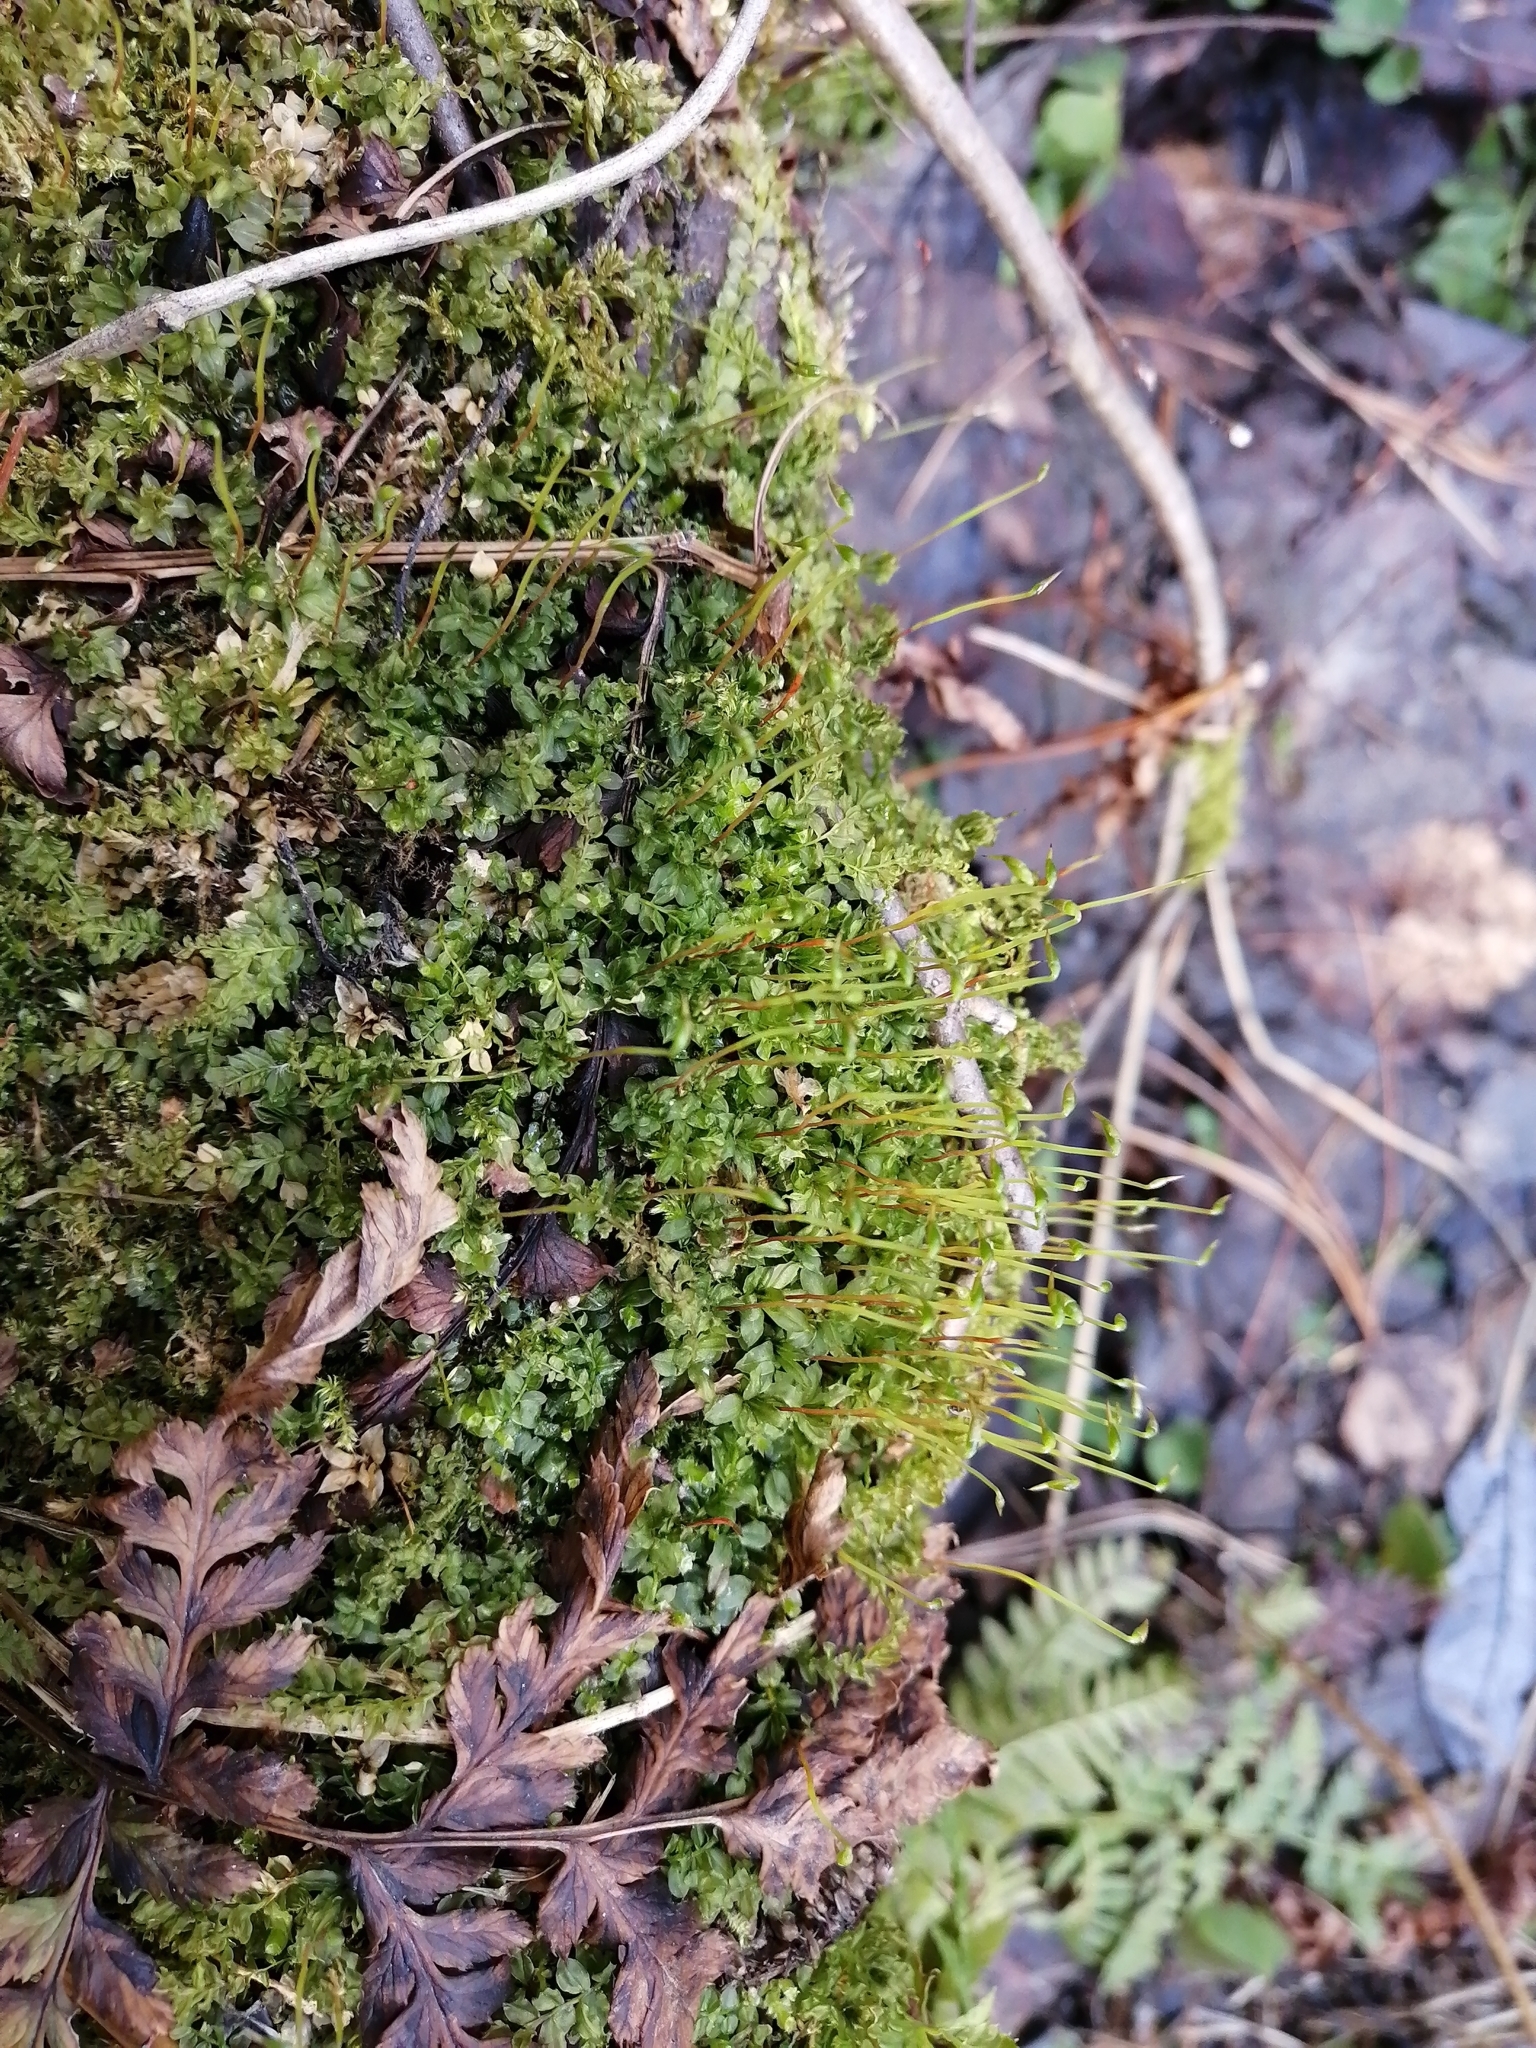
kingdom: Plantae
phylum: Bryophyta
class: Bryopsida
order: Bryales
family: Mniaceae
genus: Plagiomnium
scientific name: Plagiomnium ellipticum
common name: Marsh leafy moss
